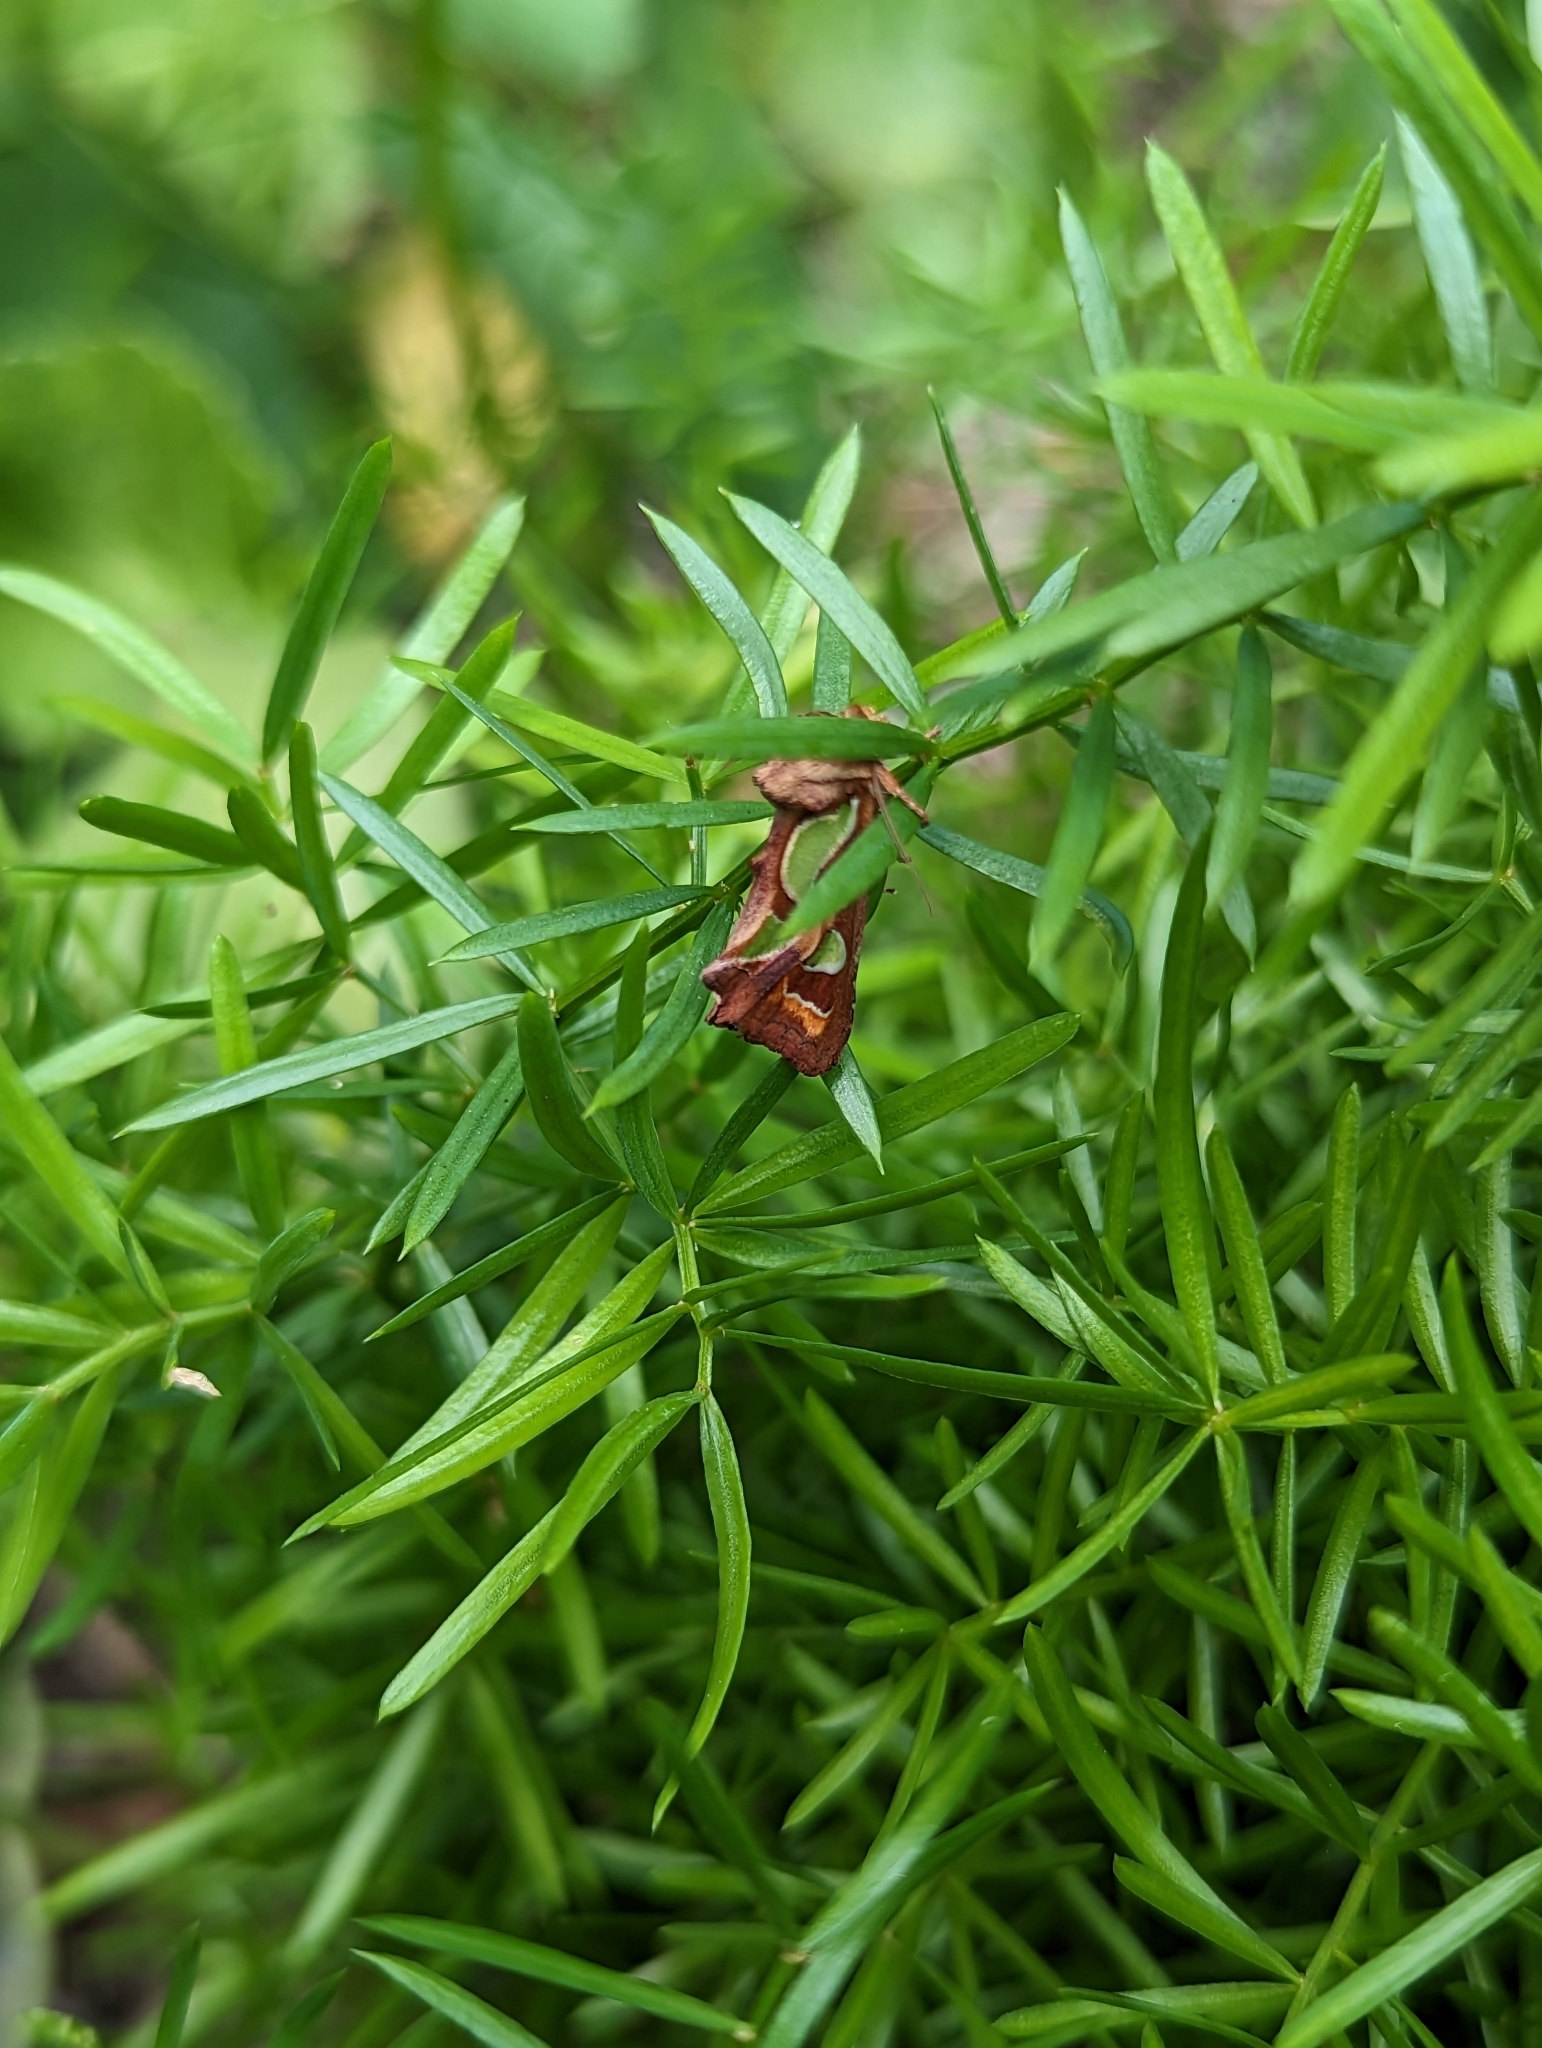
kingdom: Animalia
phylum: Arthropoda
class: Insecta
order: Lepidoptera
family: Noctuidae
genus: Cosmodes
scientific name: Cosmodes elegans
